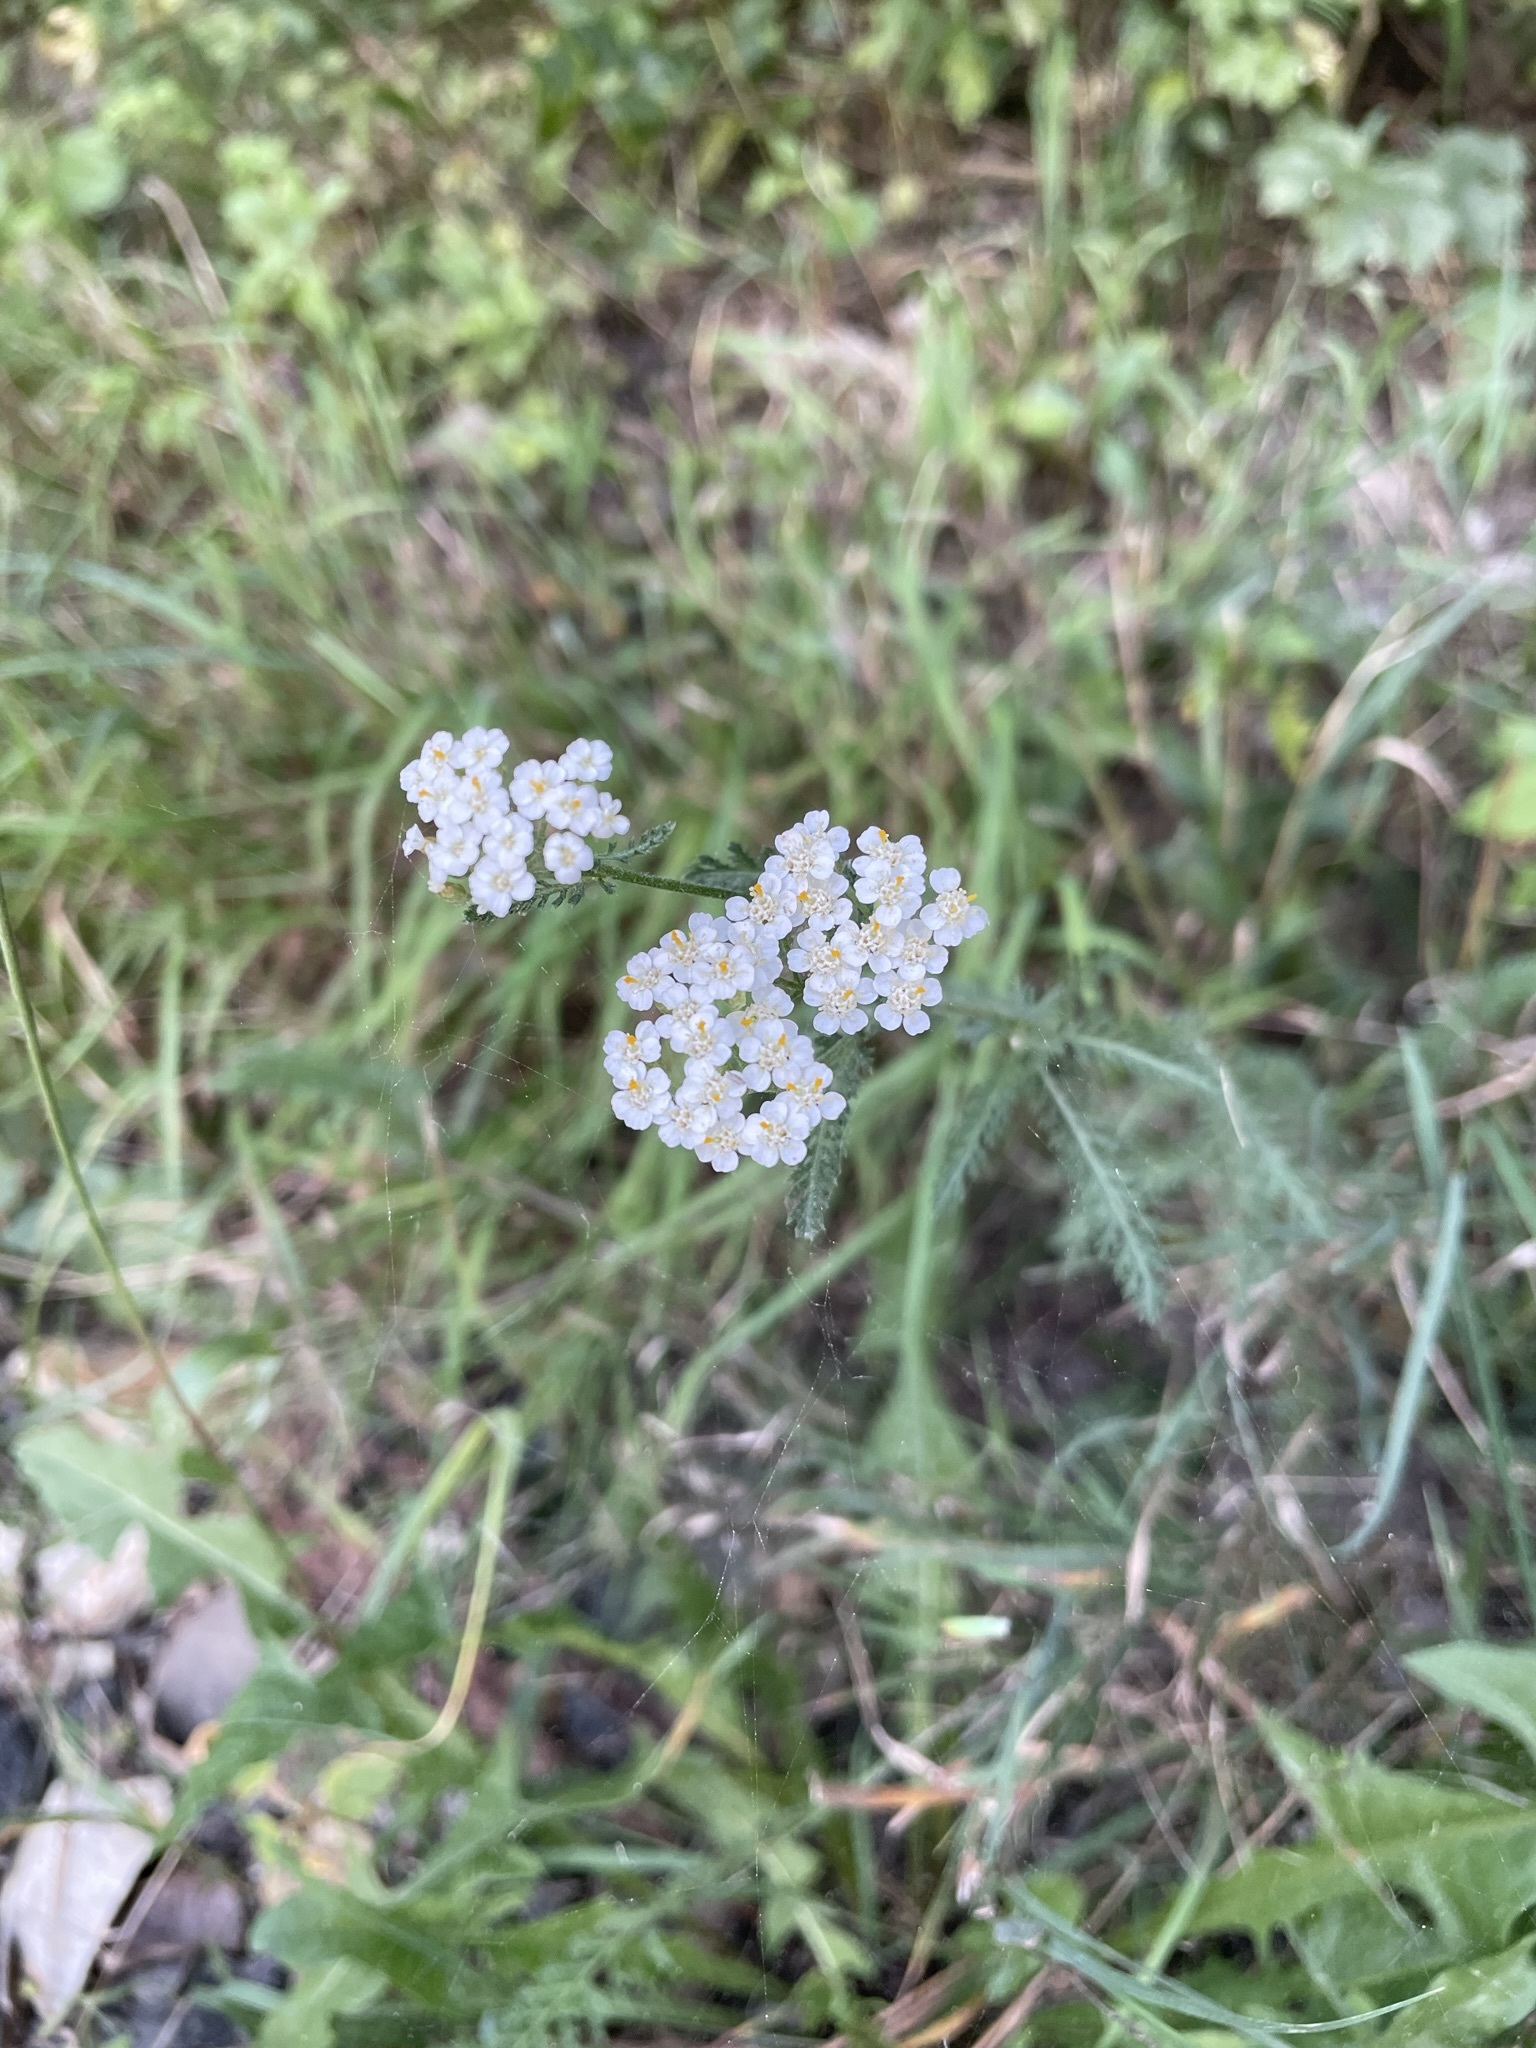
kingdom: Plantae
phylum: Tracheophyta
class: Magnoliopsida
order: Asterales
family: Asteraceae
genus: Achillea
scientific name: Achillea millefolium
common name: Yarrow
